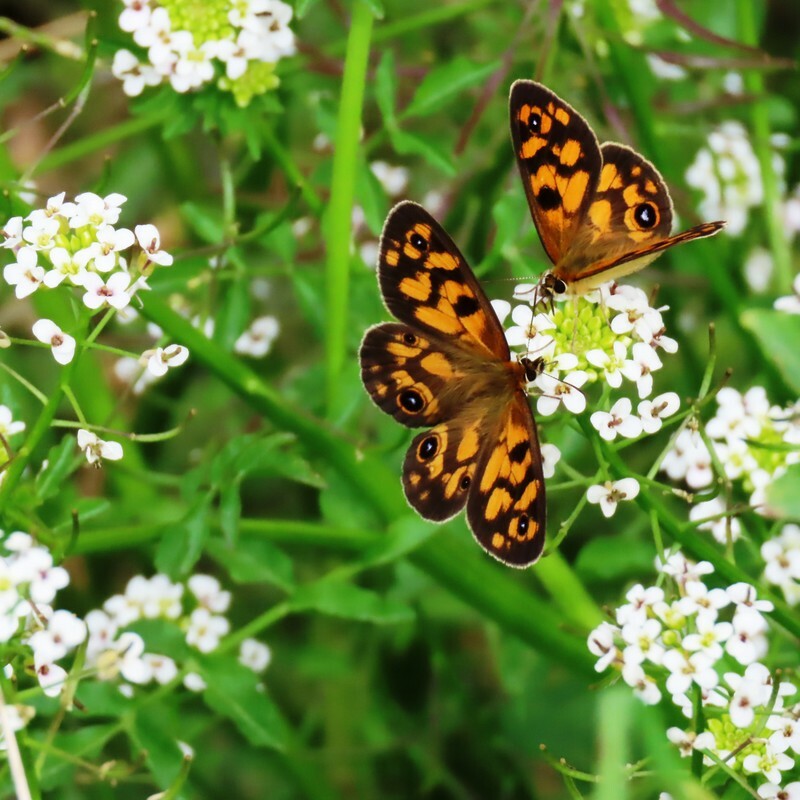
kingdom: Animalia
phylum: Arthropoda
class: Insecta
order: Lepidoptera
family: Nymphalidae
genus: Heteronympha
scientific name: Heteronympha cordace
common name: Bright-eyed brown
